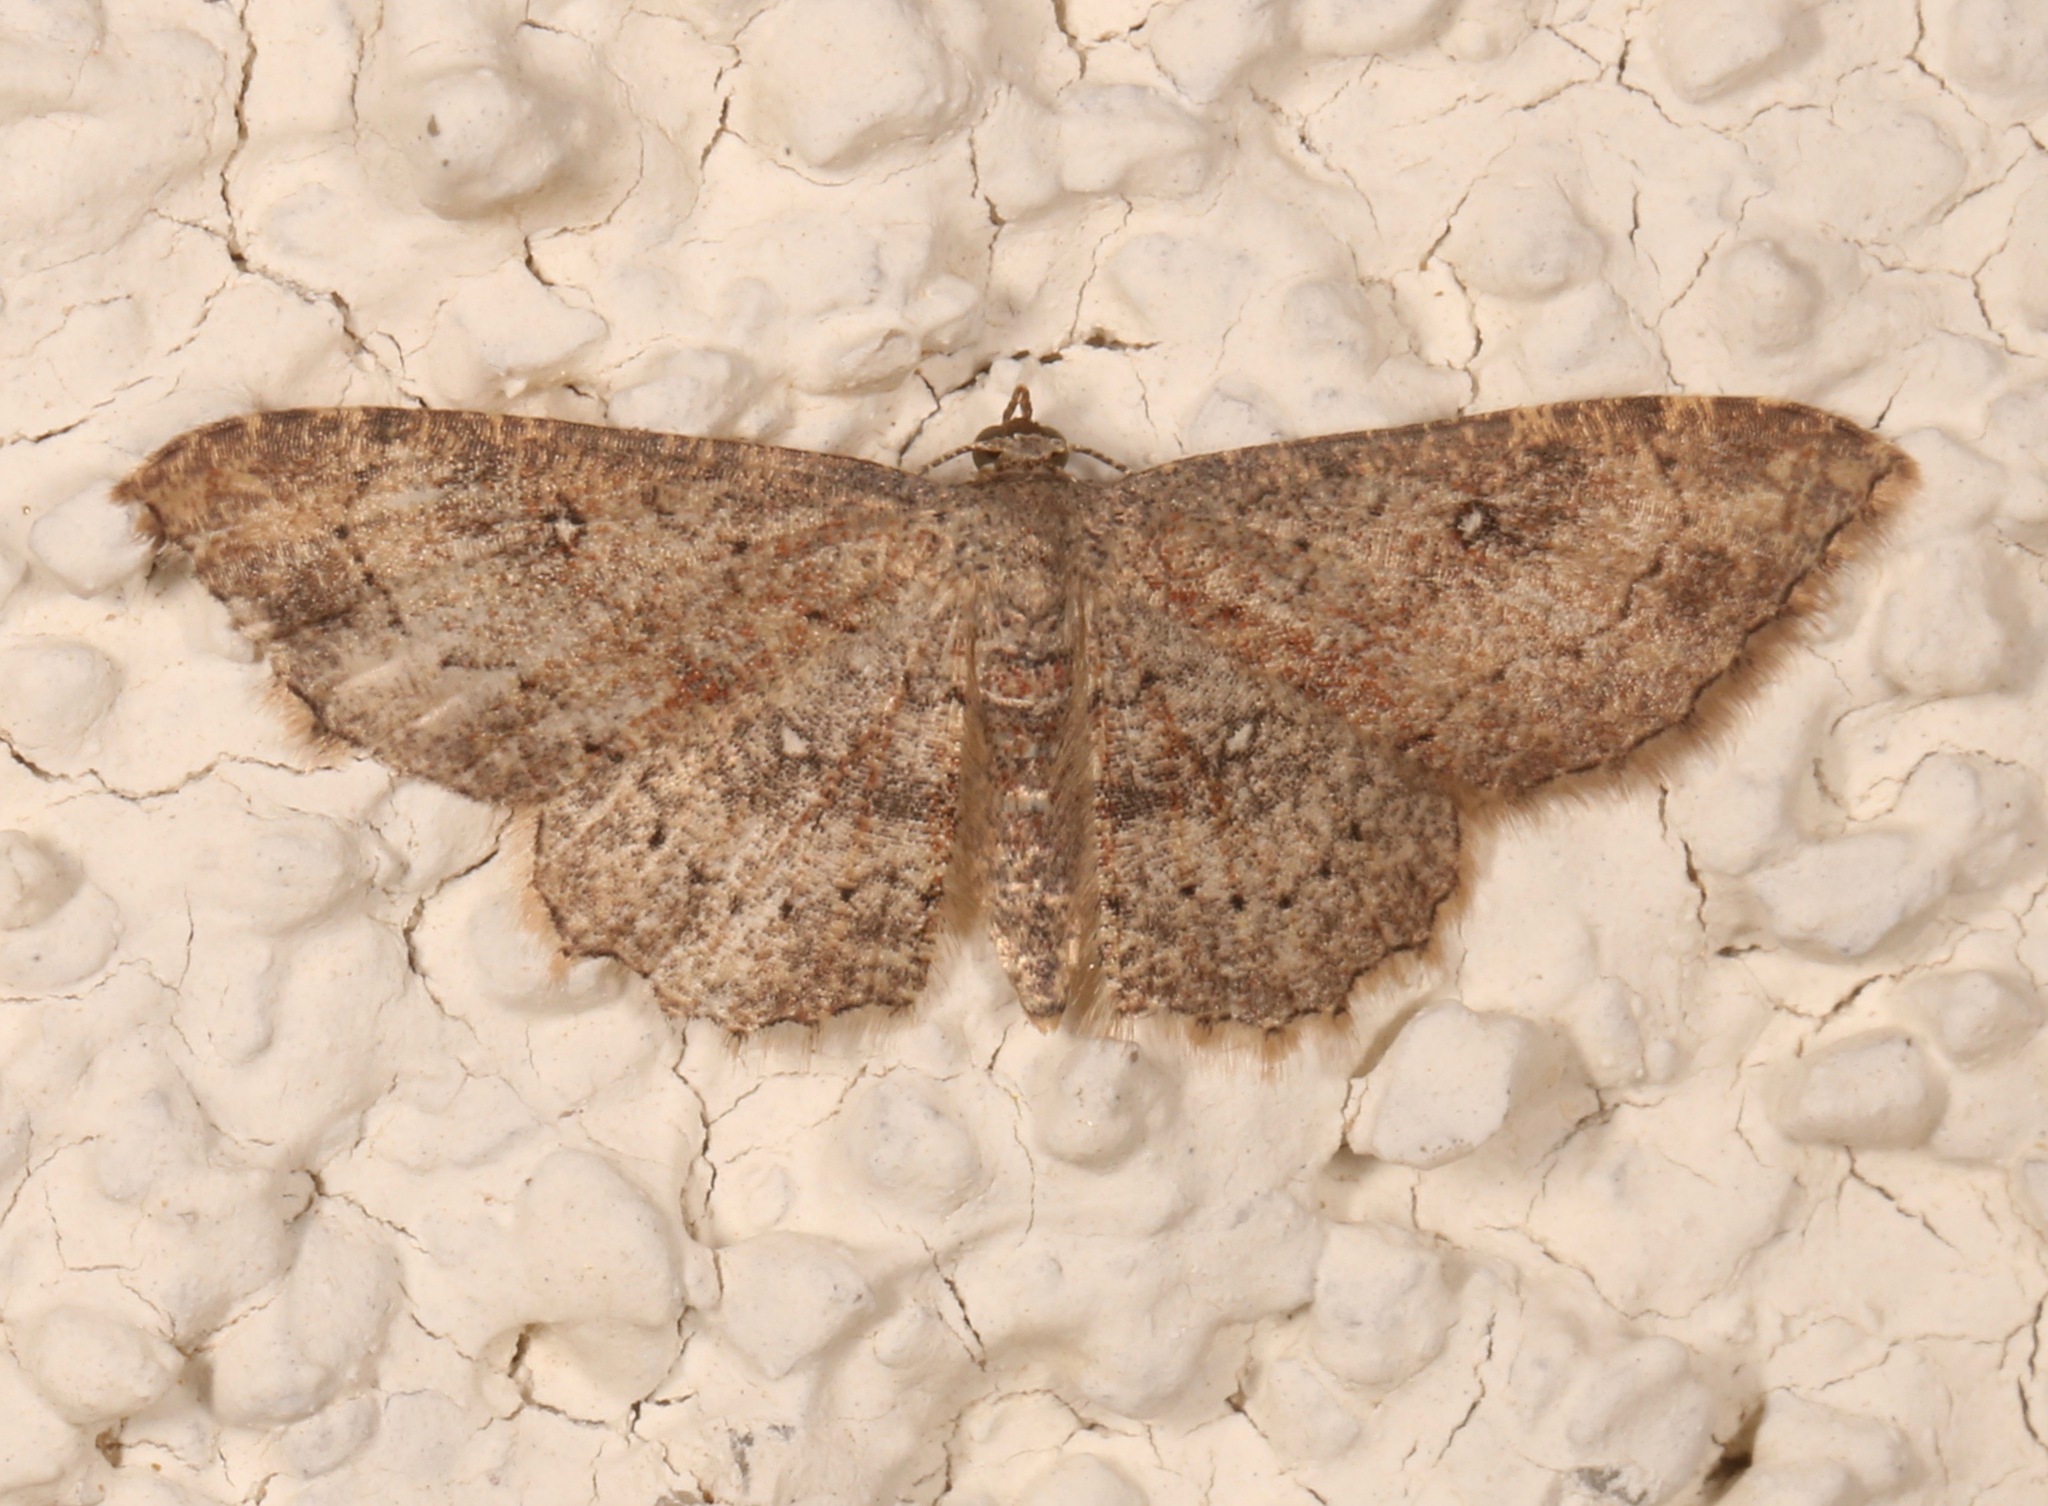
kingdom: Animalia
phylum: Arthropoda
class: Insecta
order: Lepidoptera
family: Geometridae
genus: Cyclophora
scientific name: Cyclophora nanaria
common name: Cankerworm
